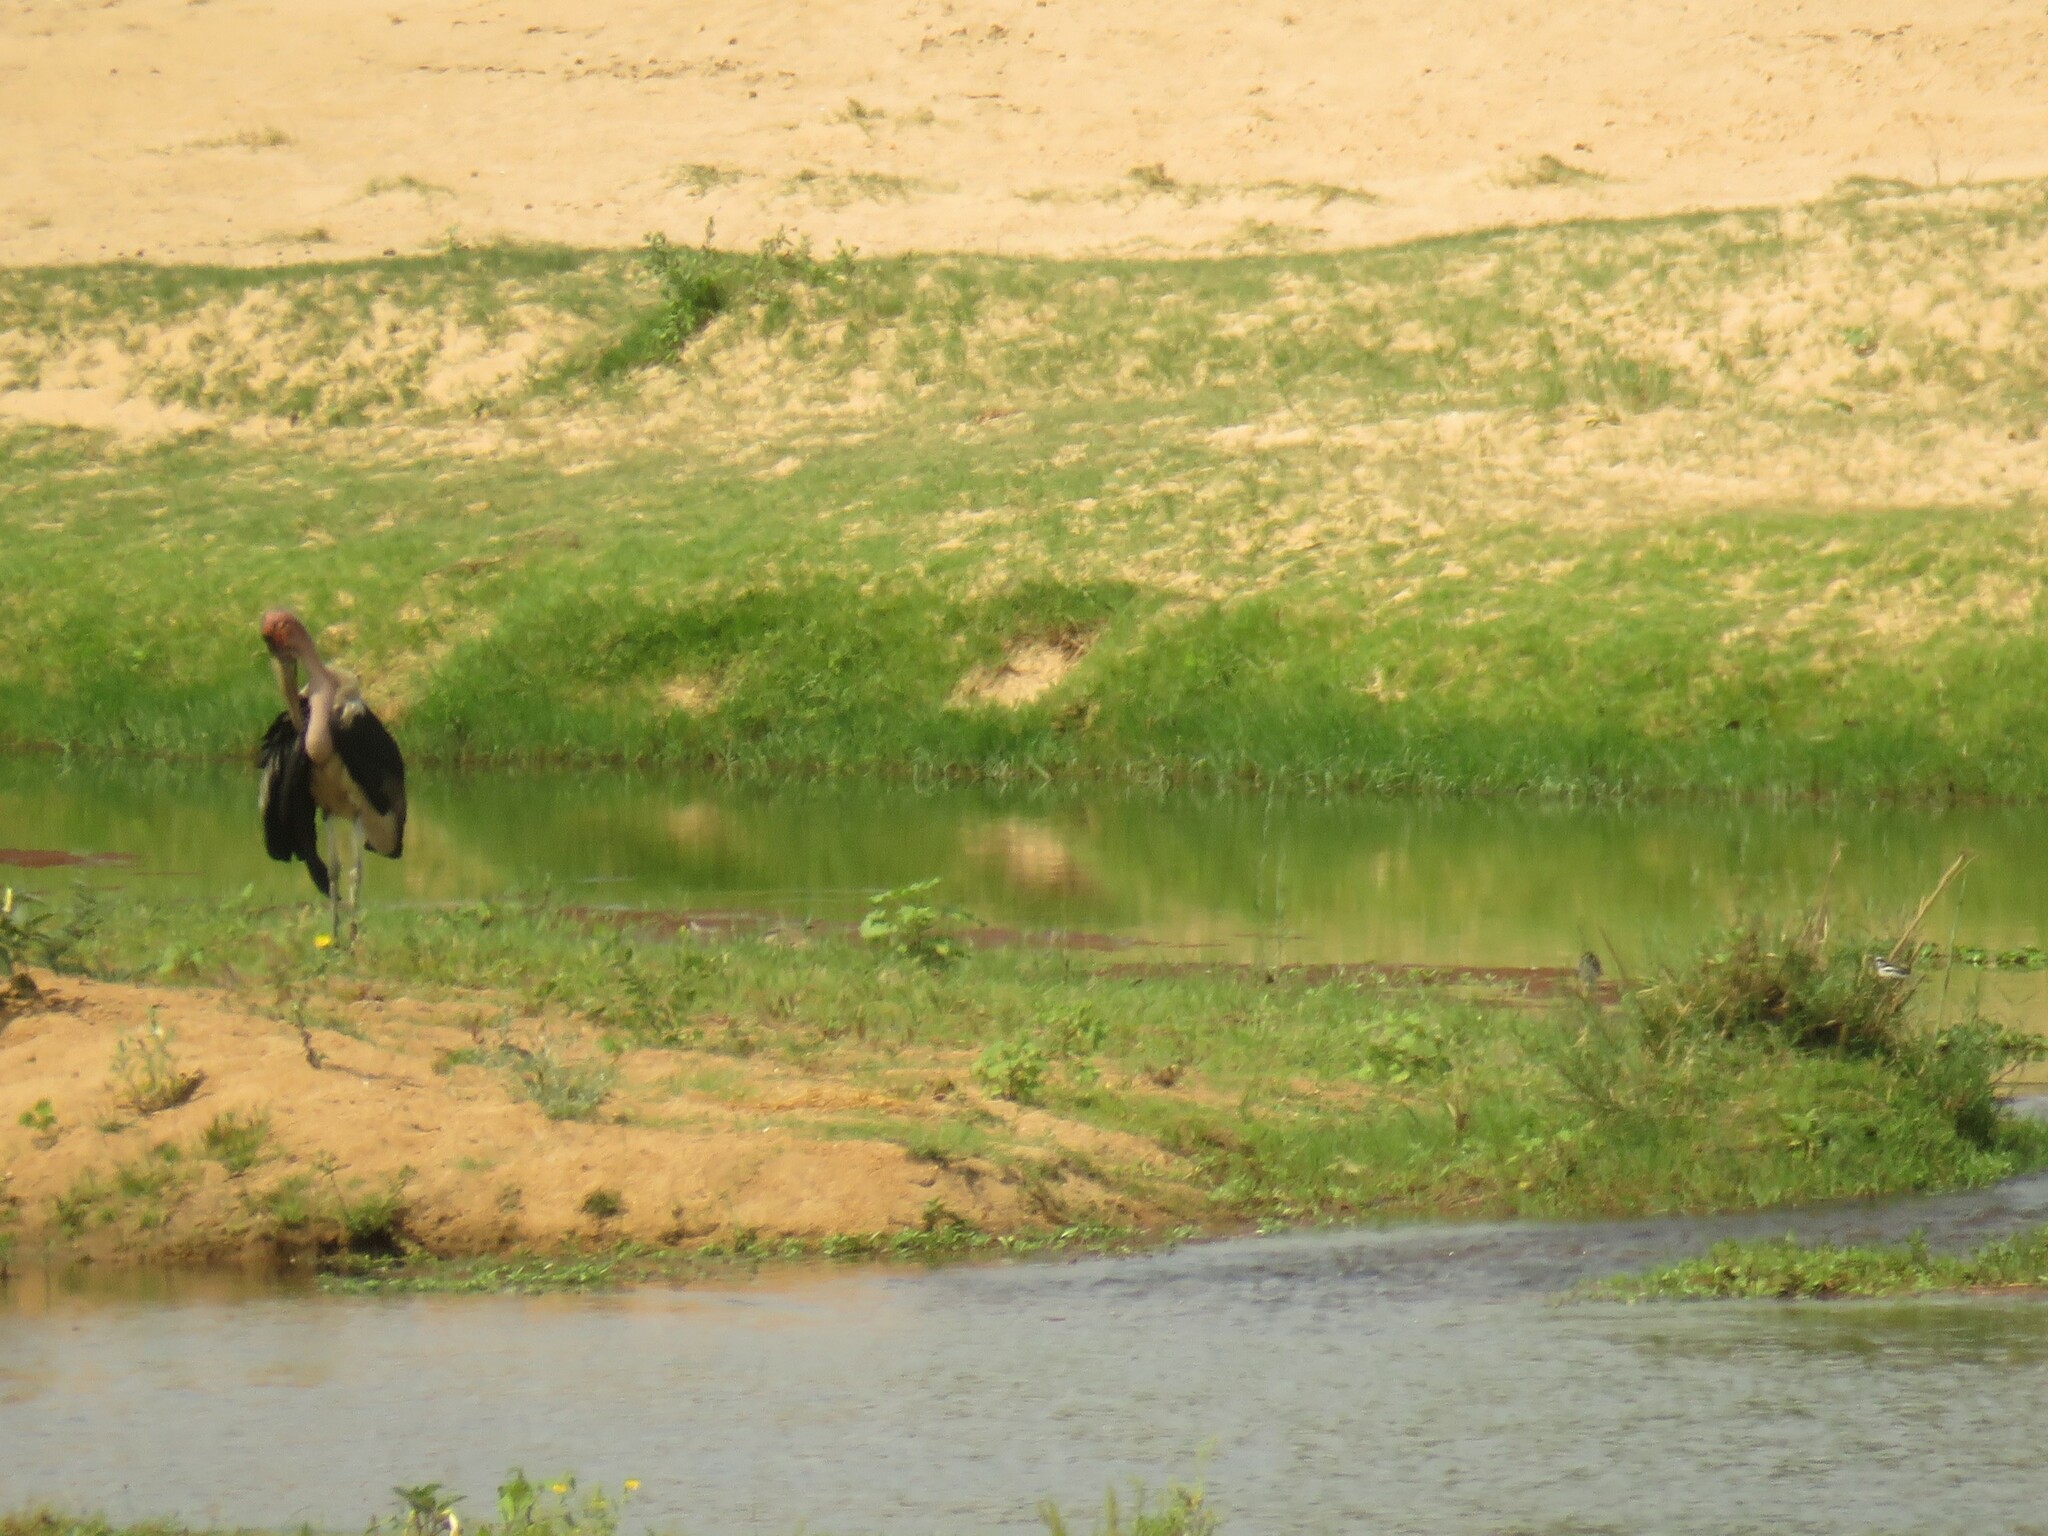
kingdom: Animalia
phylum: Chordata
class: Aves
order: Ciconiiformes
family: Ciconiidae
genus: Leptoptilos
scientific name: Leptoptilos crumenifer
